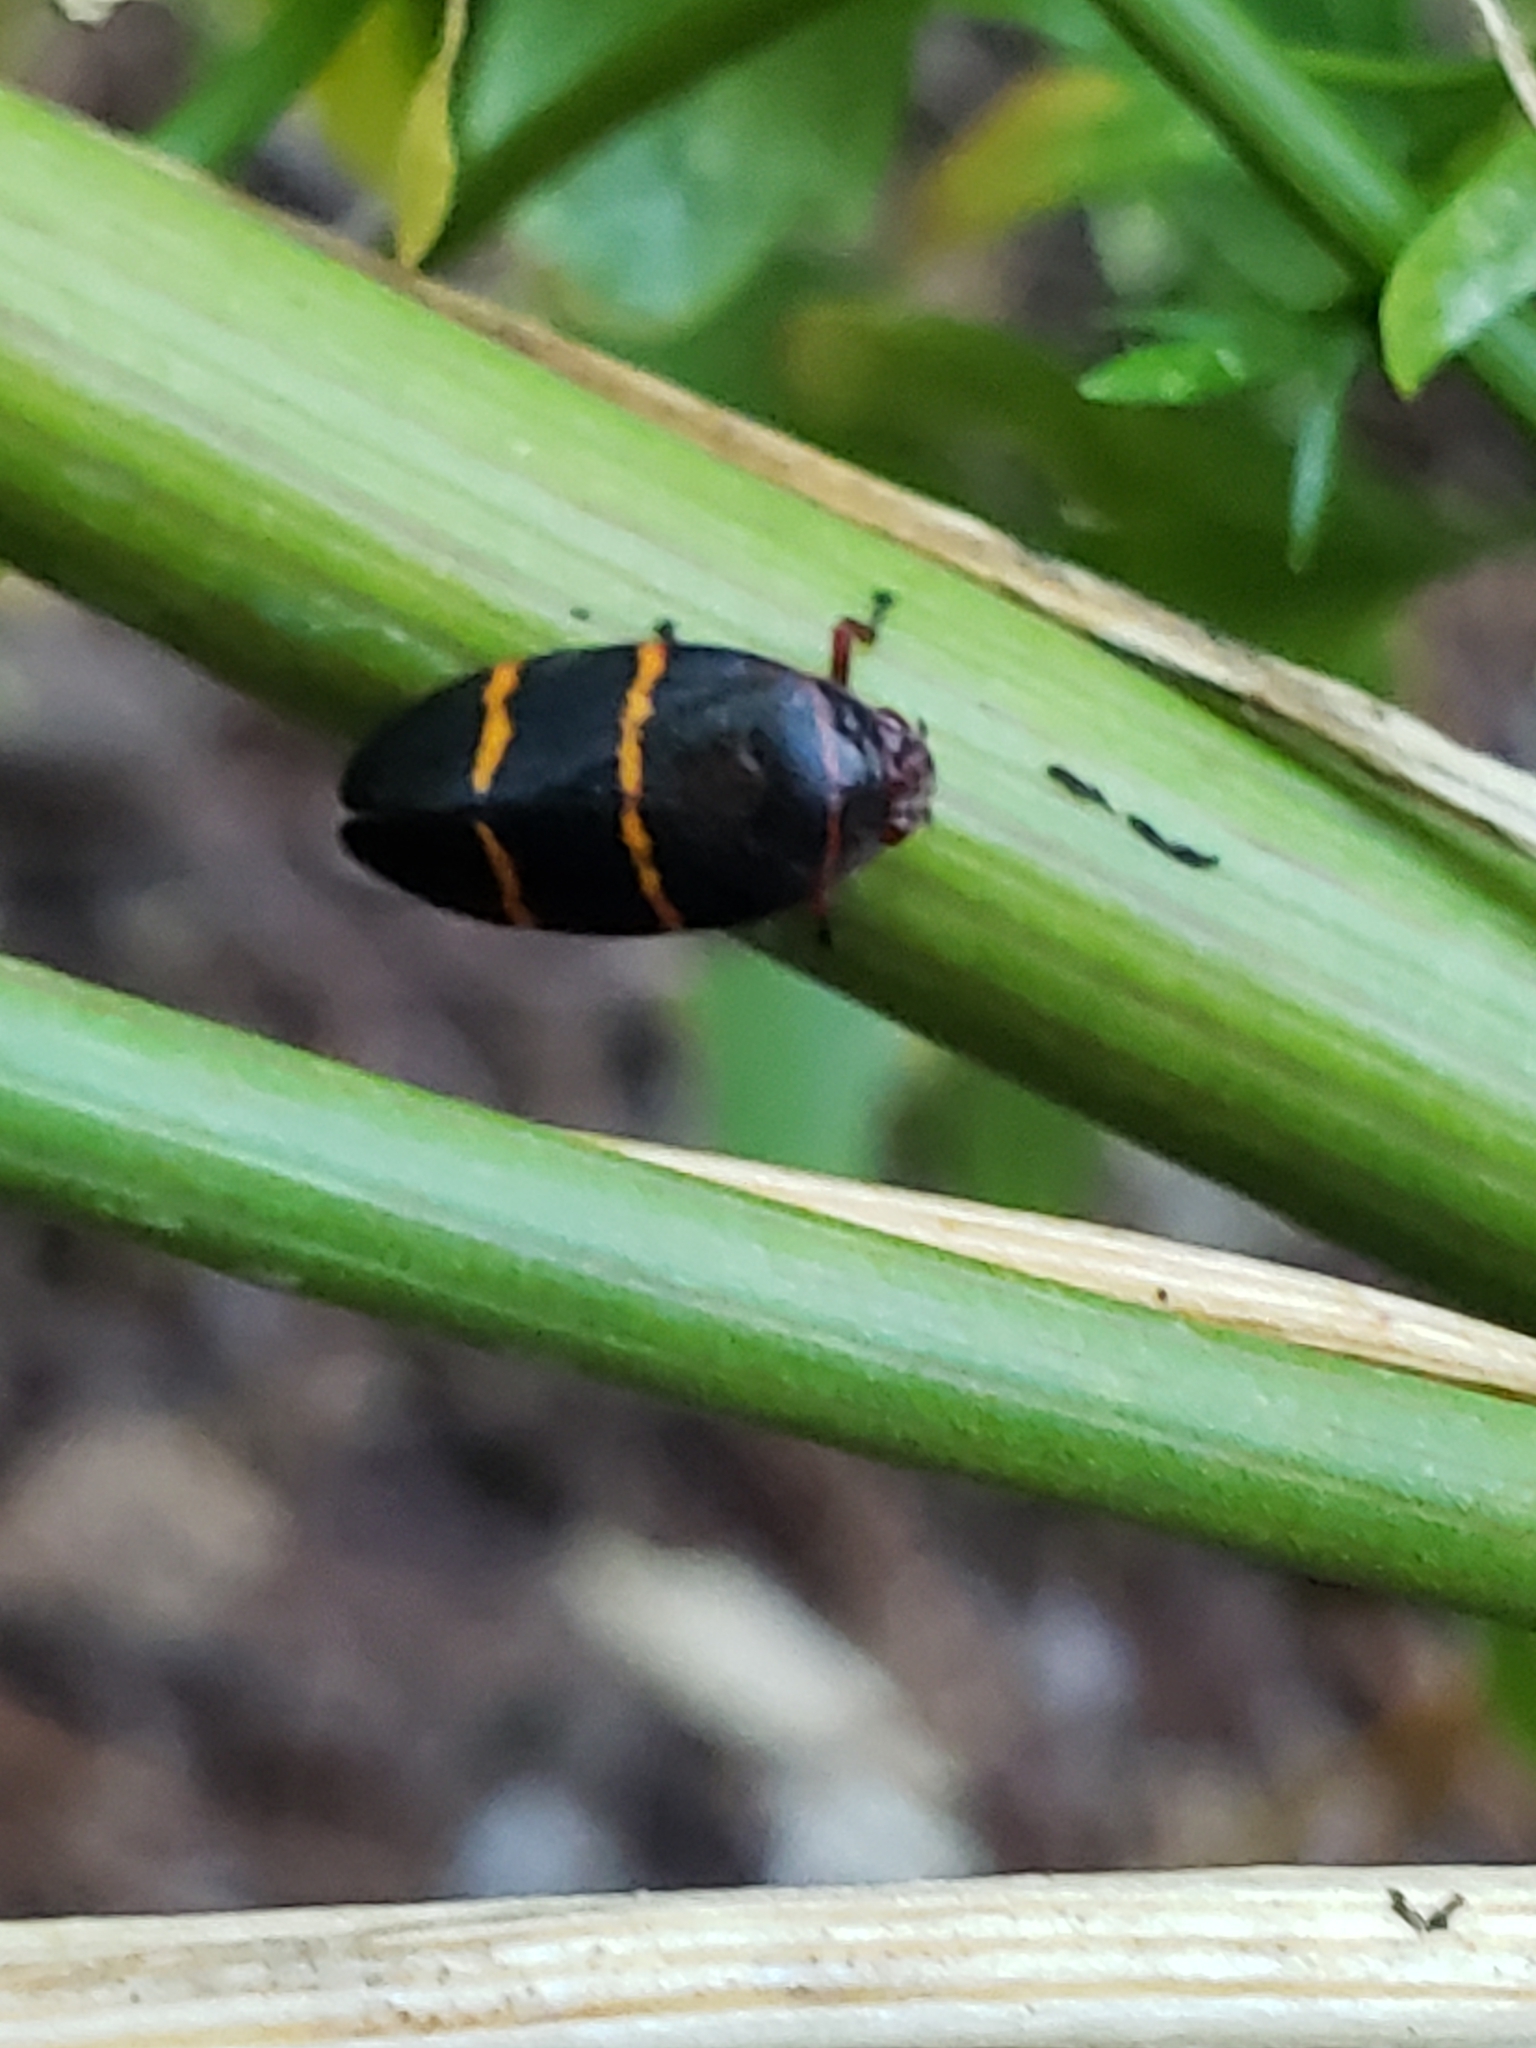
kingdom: Animalia
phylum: Arthropoda
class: Insecta
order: Hemiptera
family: Cercopidae
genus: Prosapia
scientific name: Prosapia bicincta
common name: Twolined spittlebug
